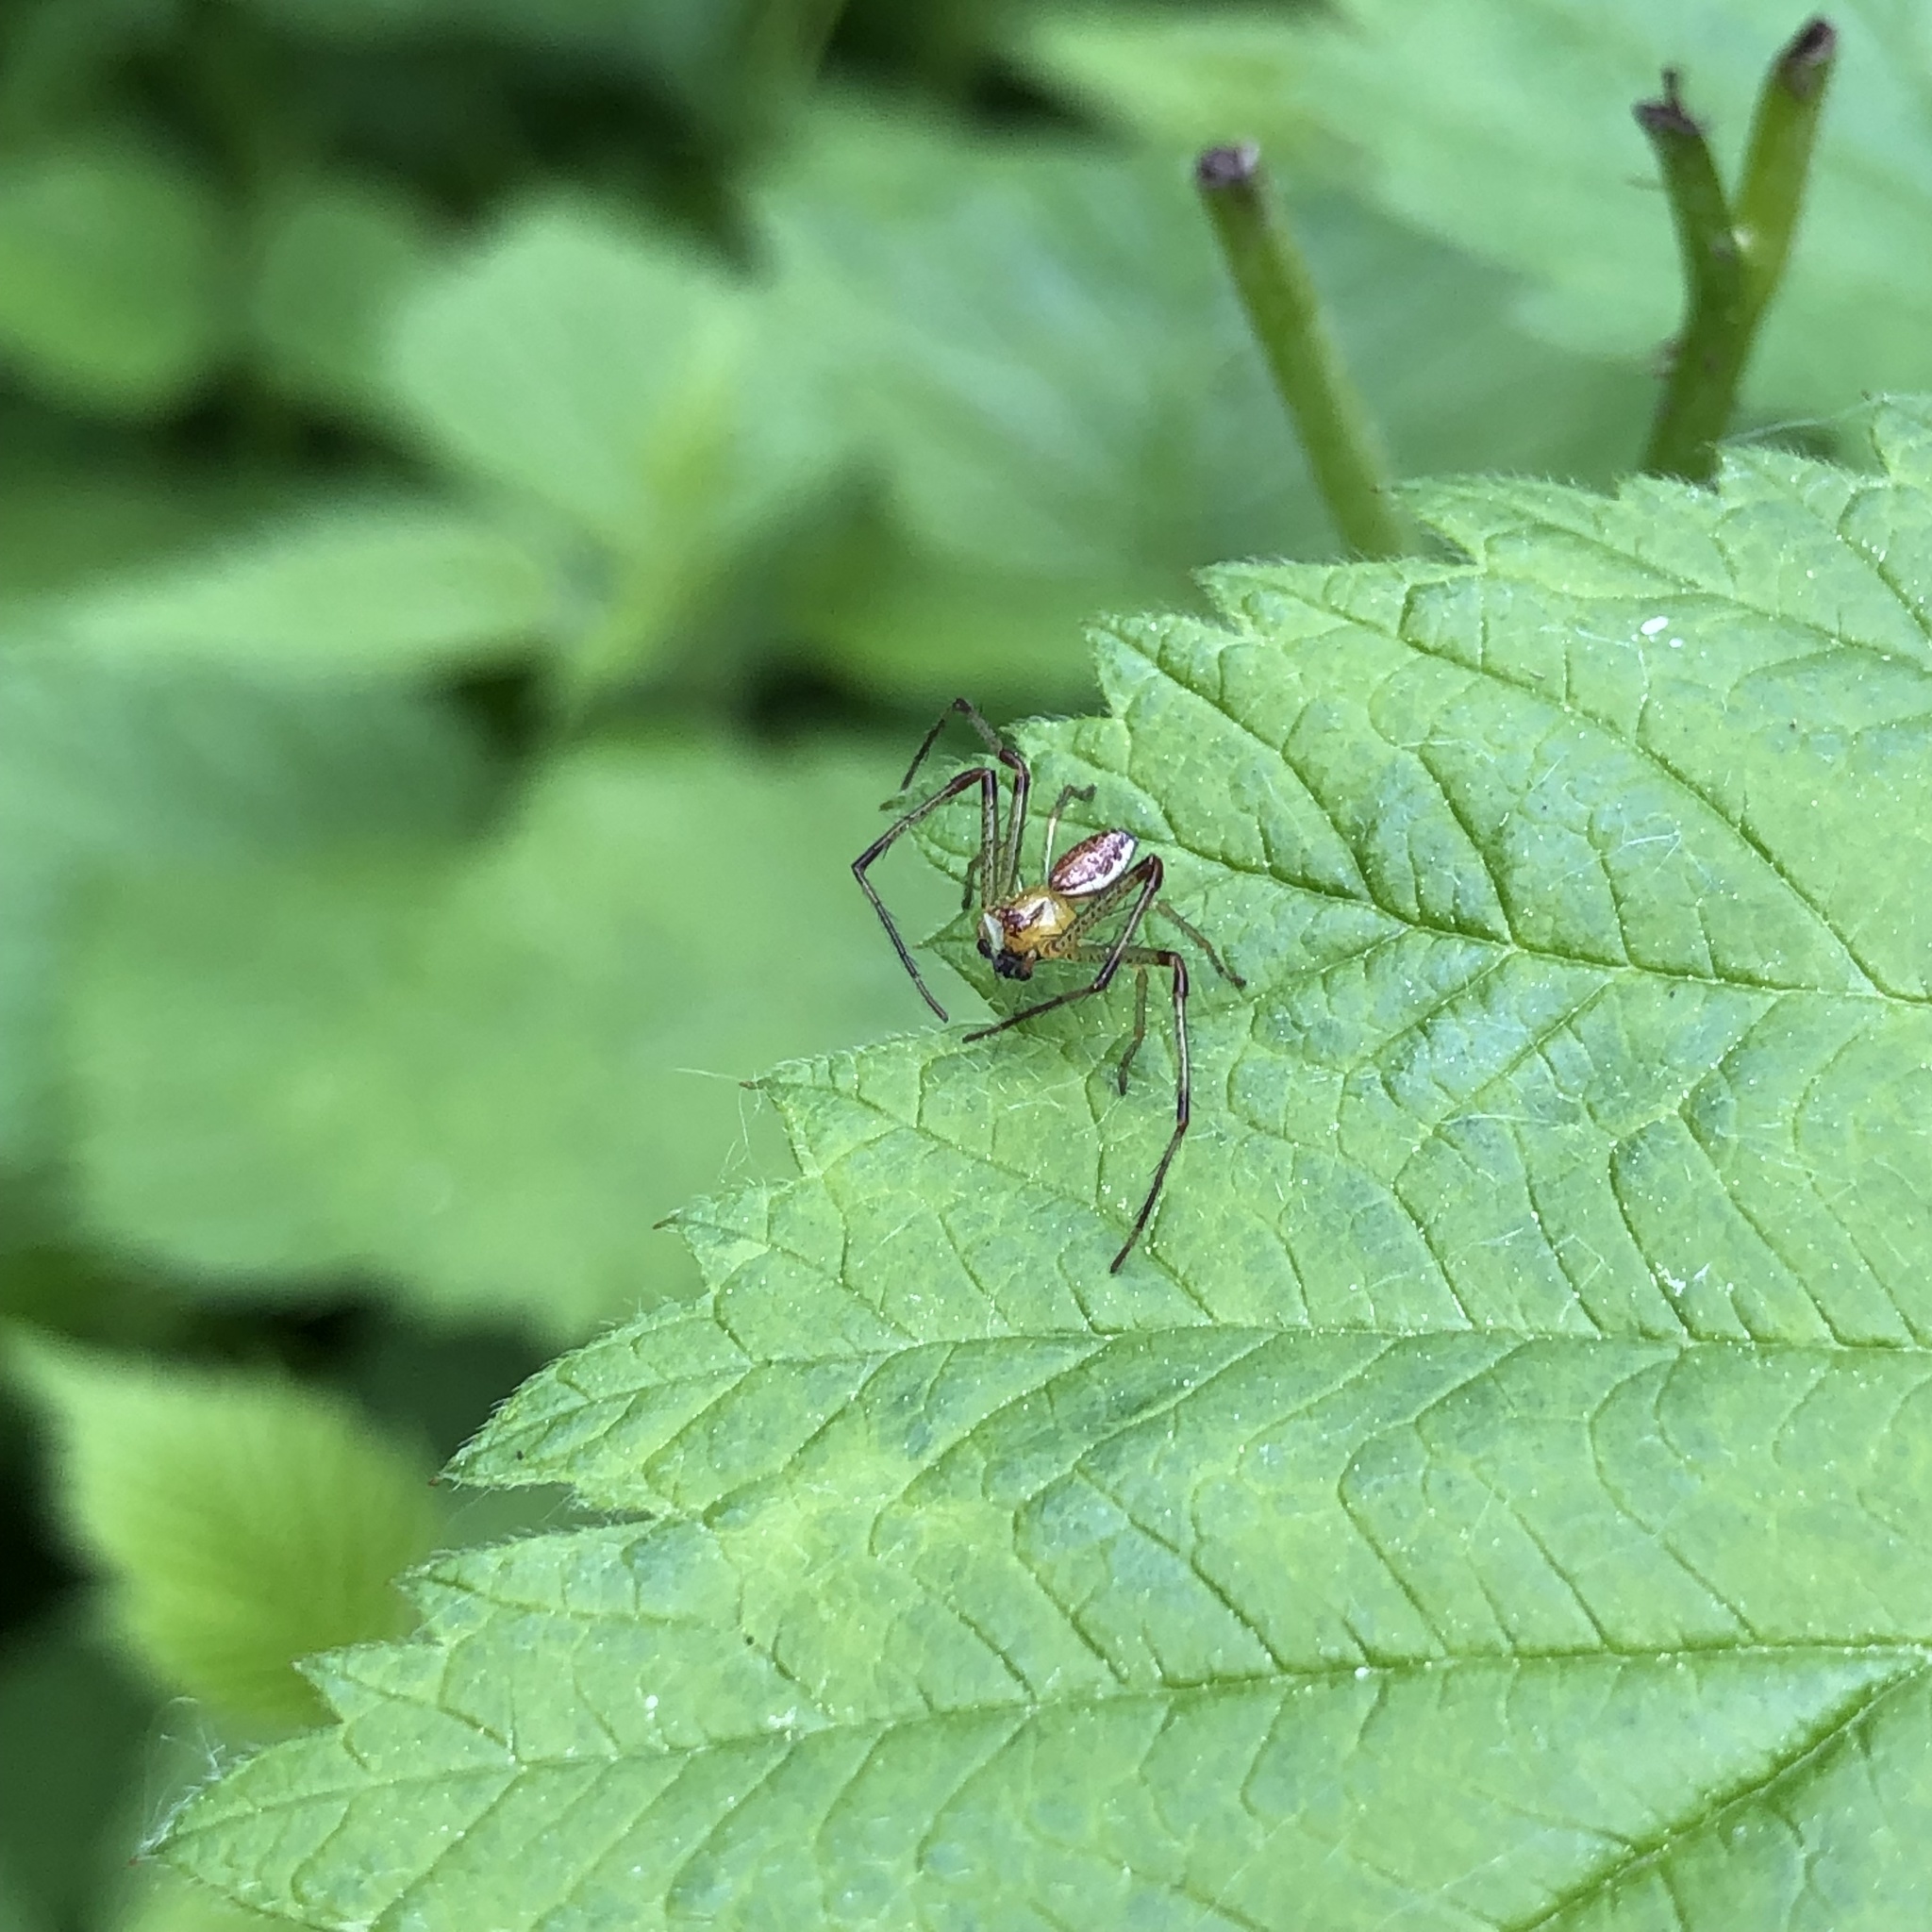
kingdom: Animalia
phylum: Arthropoda
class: Arachnida
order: Araneae
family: Thomisidae
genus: Diaea
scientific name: Diaea dorsata
